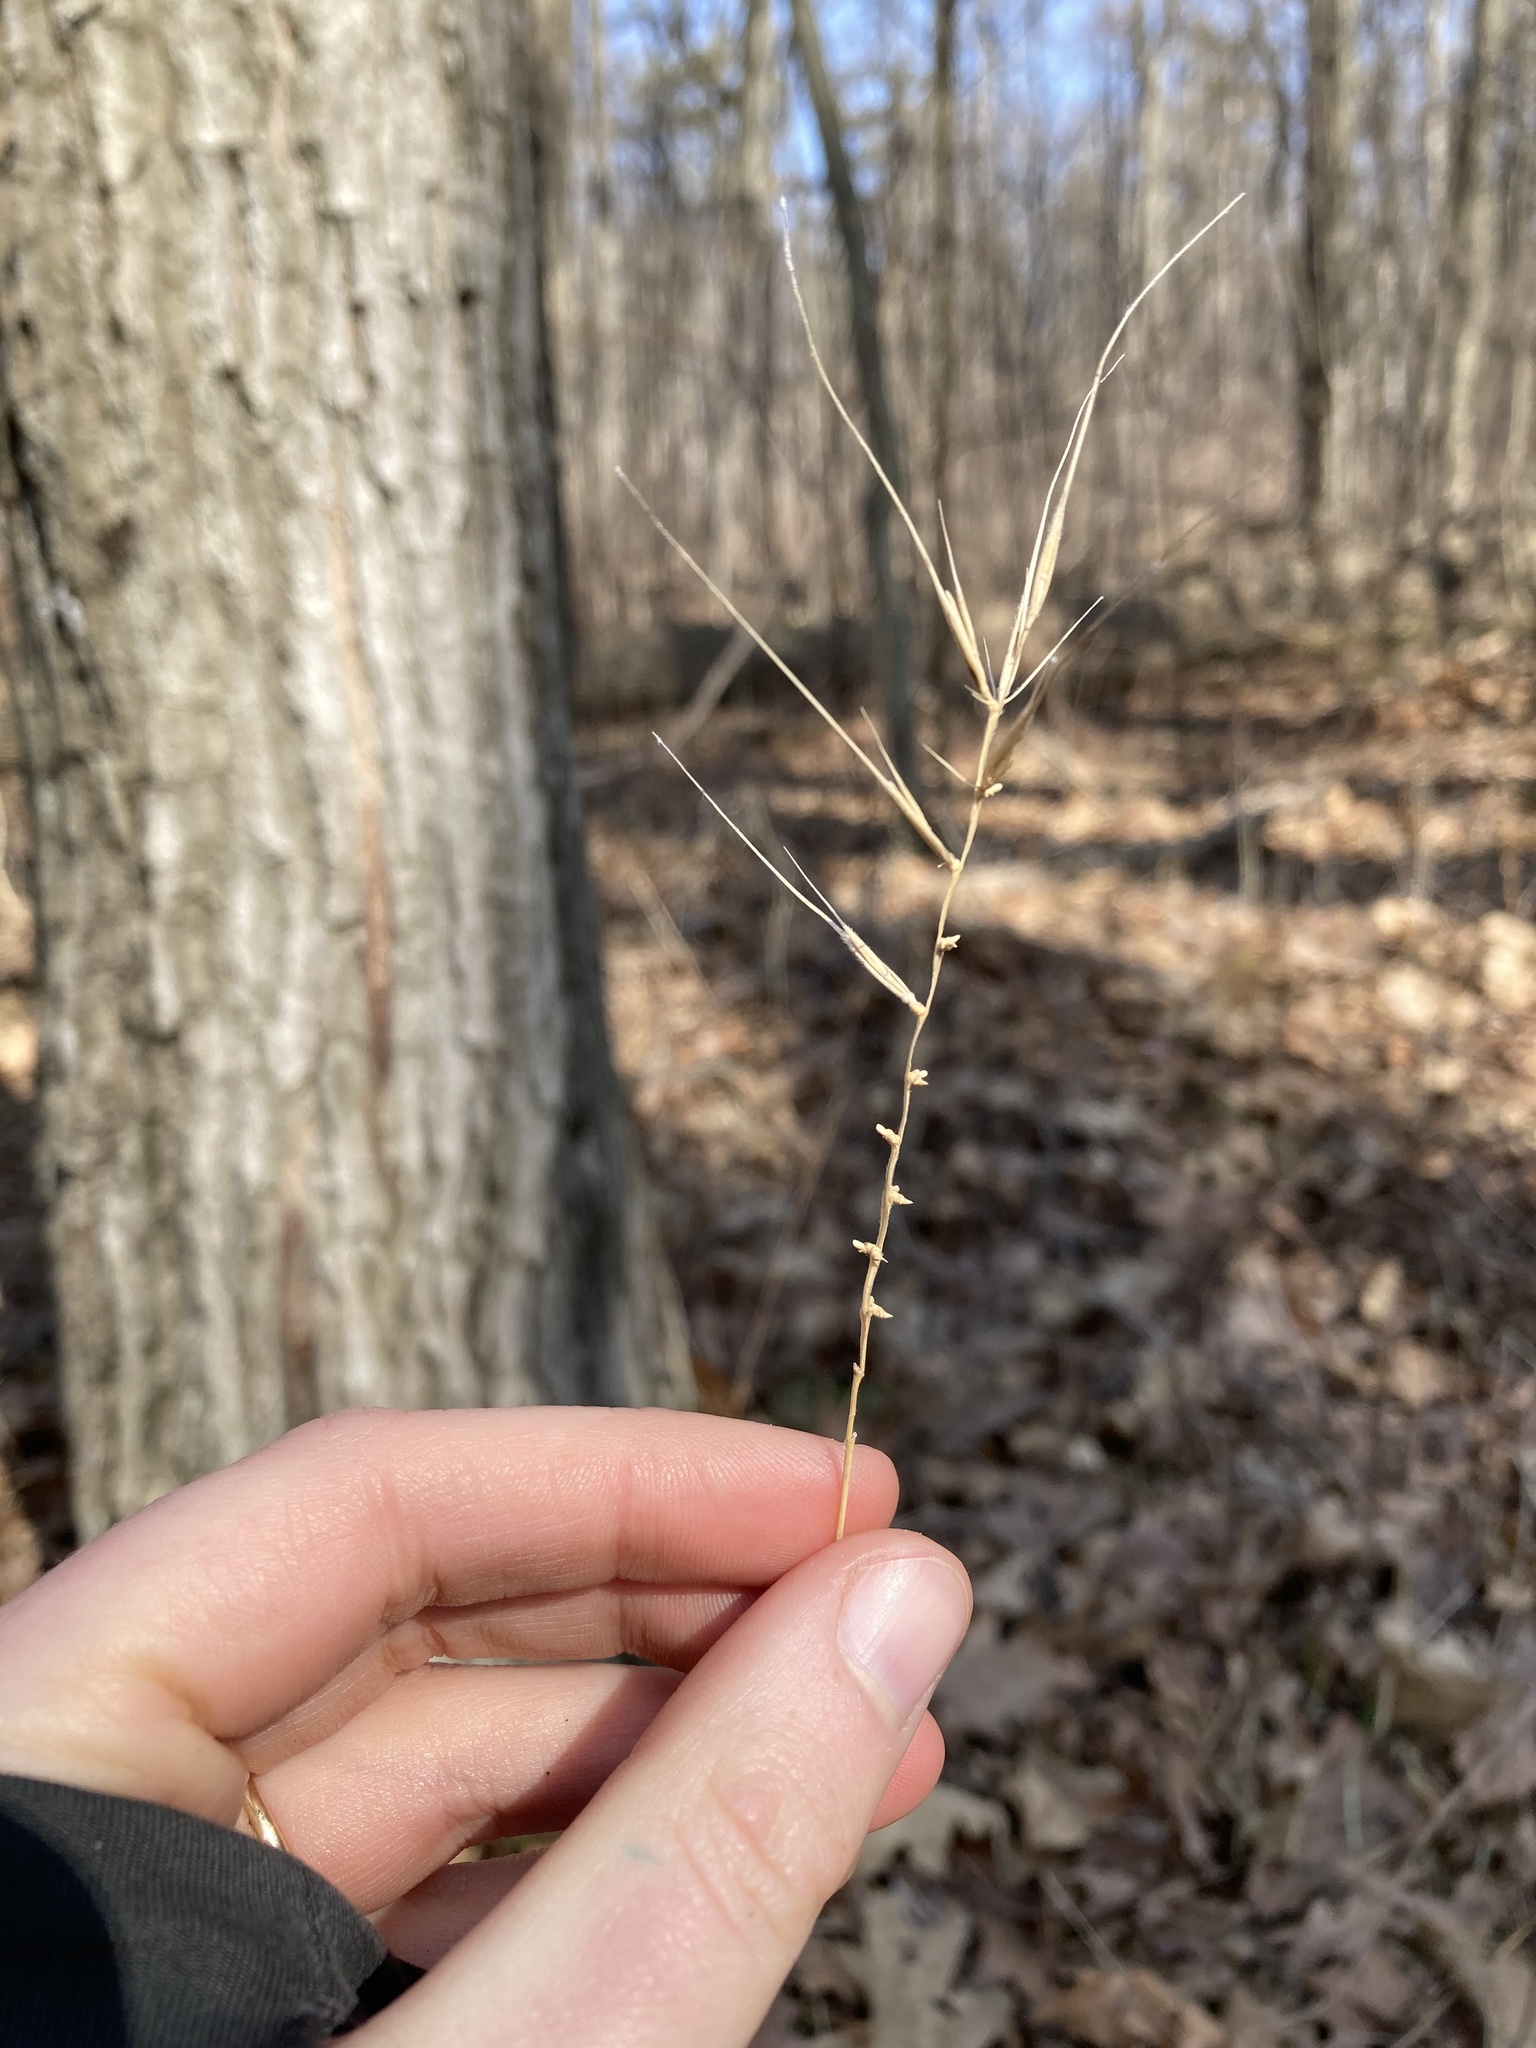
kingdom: Plantae
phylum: Tracheophyta
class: Liliopsida
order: Poales
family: Poaceae
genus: Elymus
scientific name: Elymus hystrix
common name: Bottlebrush grass
